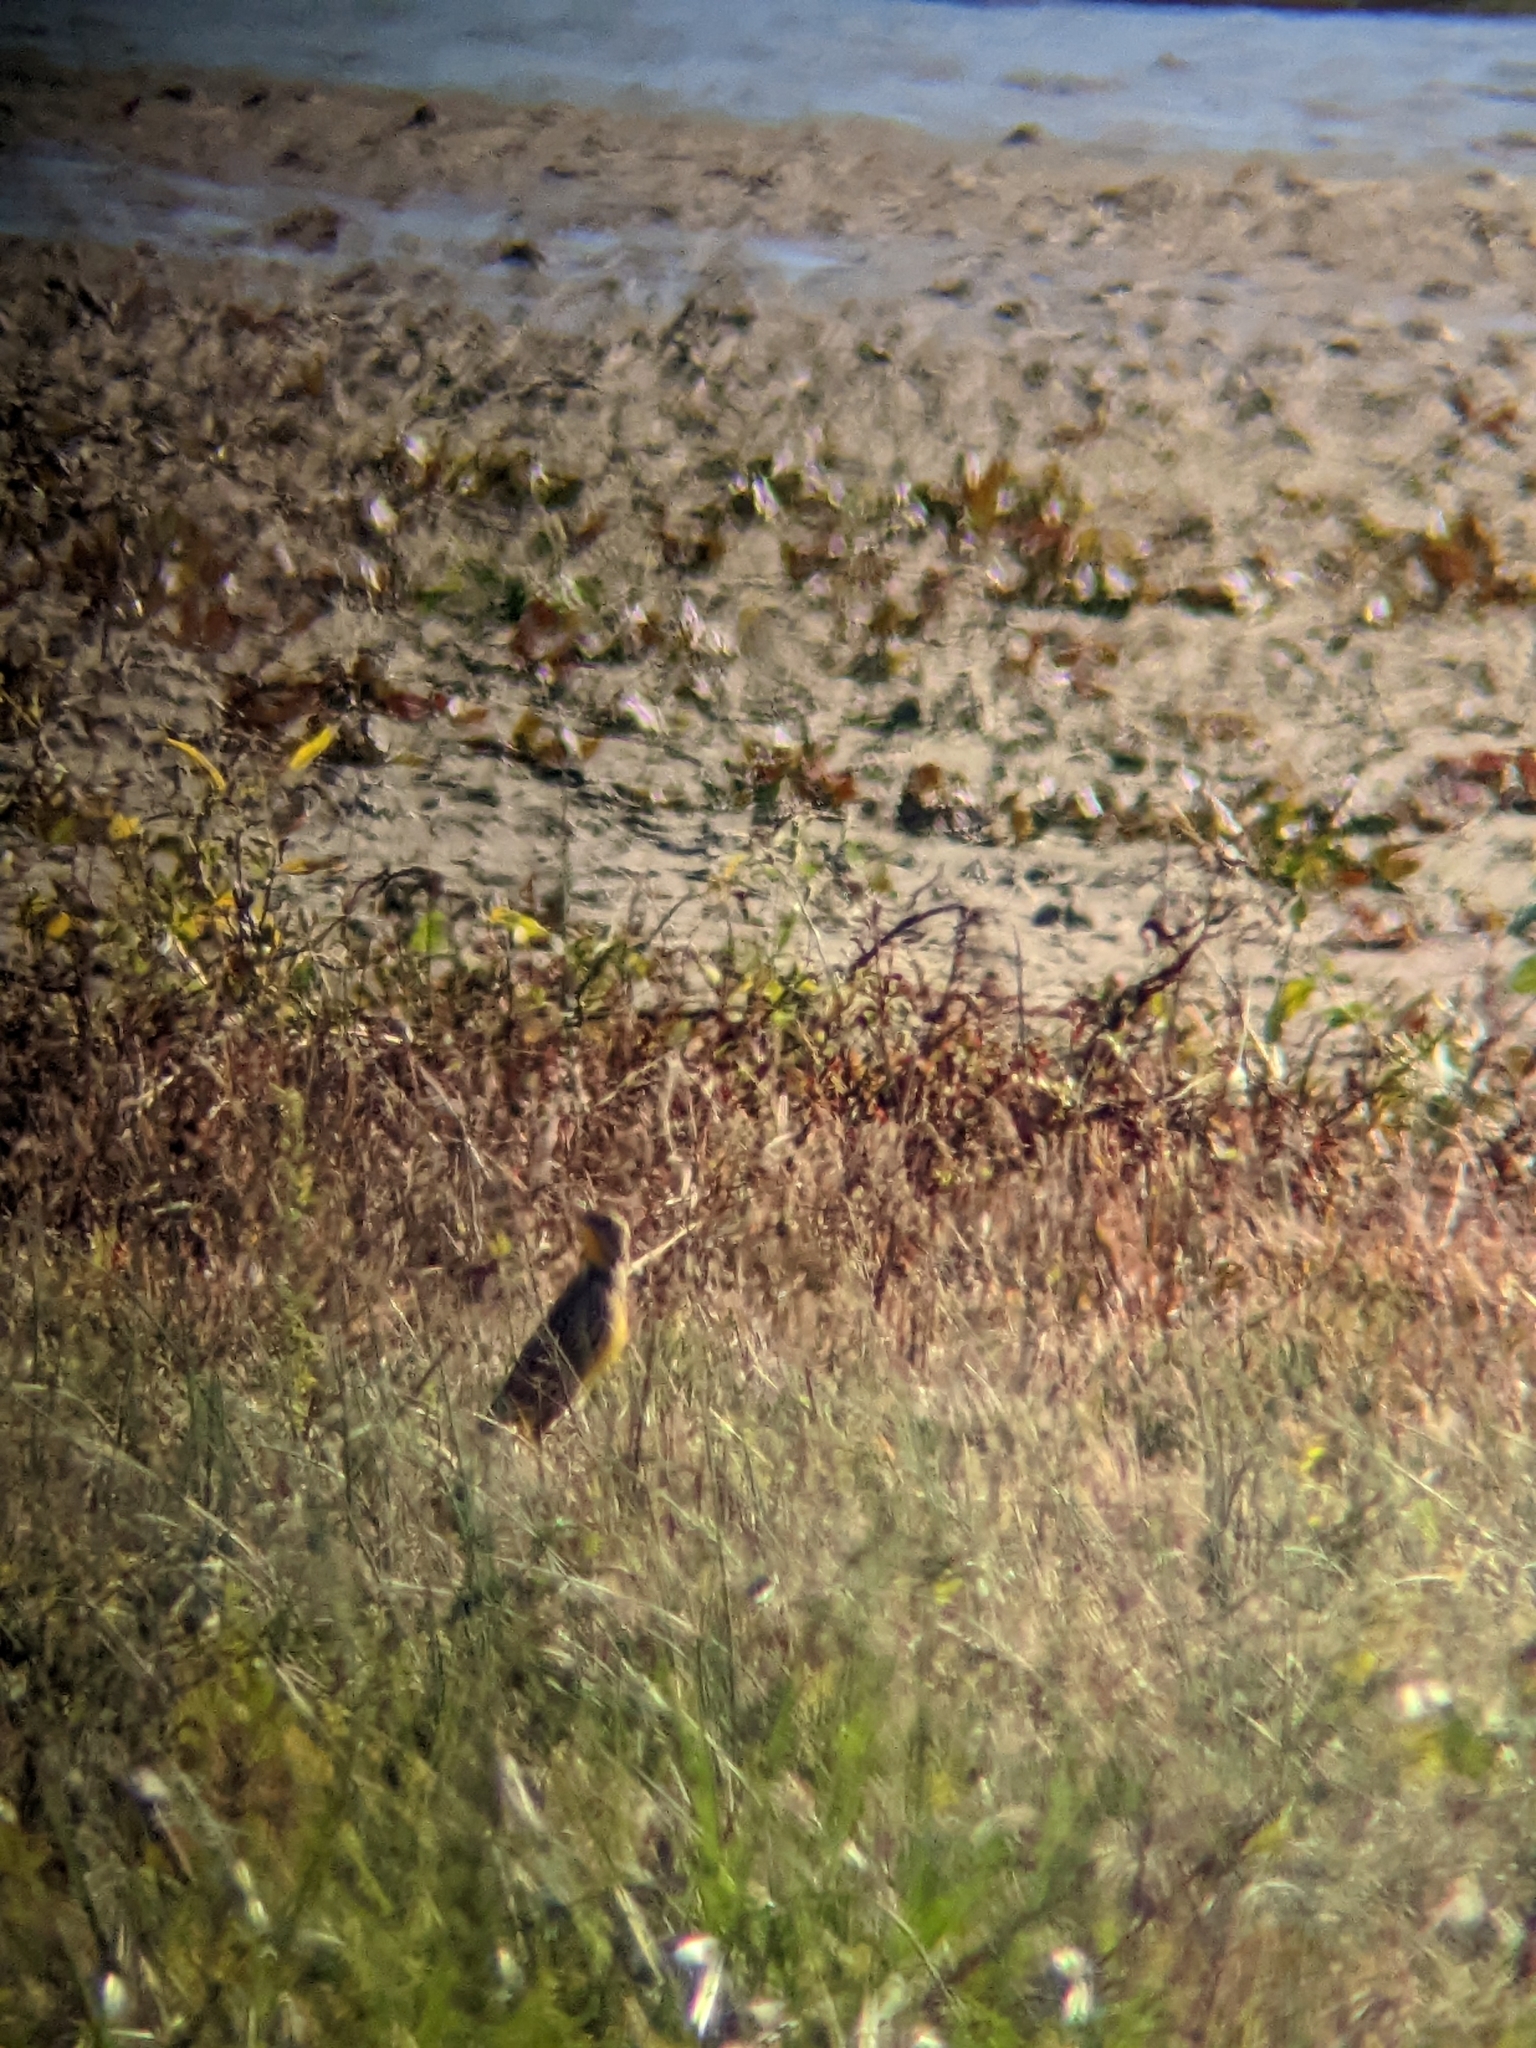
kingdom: Animalia
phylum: Chordata
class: Aves
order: Passeriformes
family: Icteridae
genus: Sturnella
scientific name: Sturnella magna
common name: Eastern meadowlark
